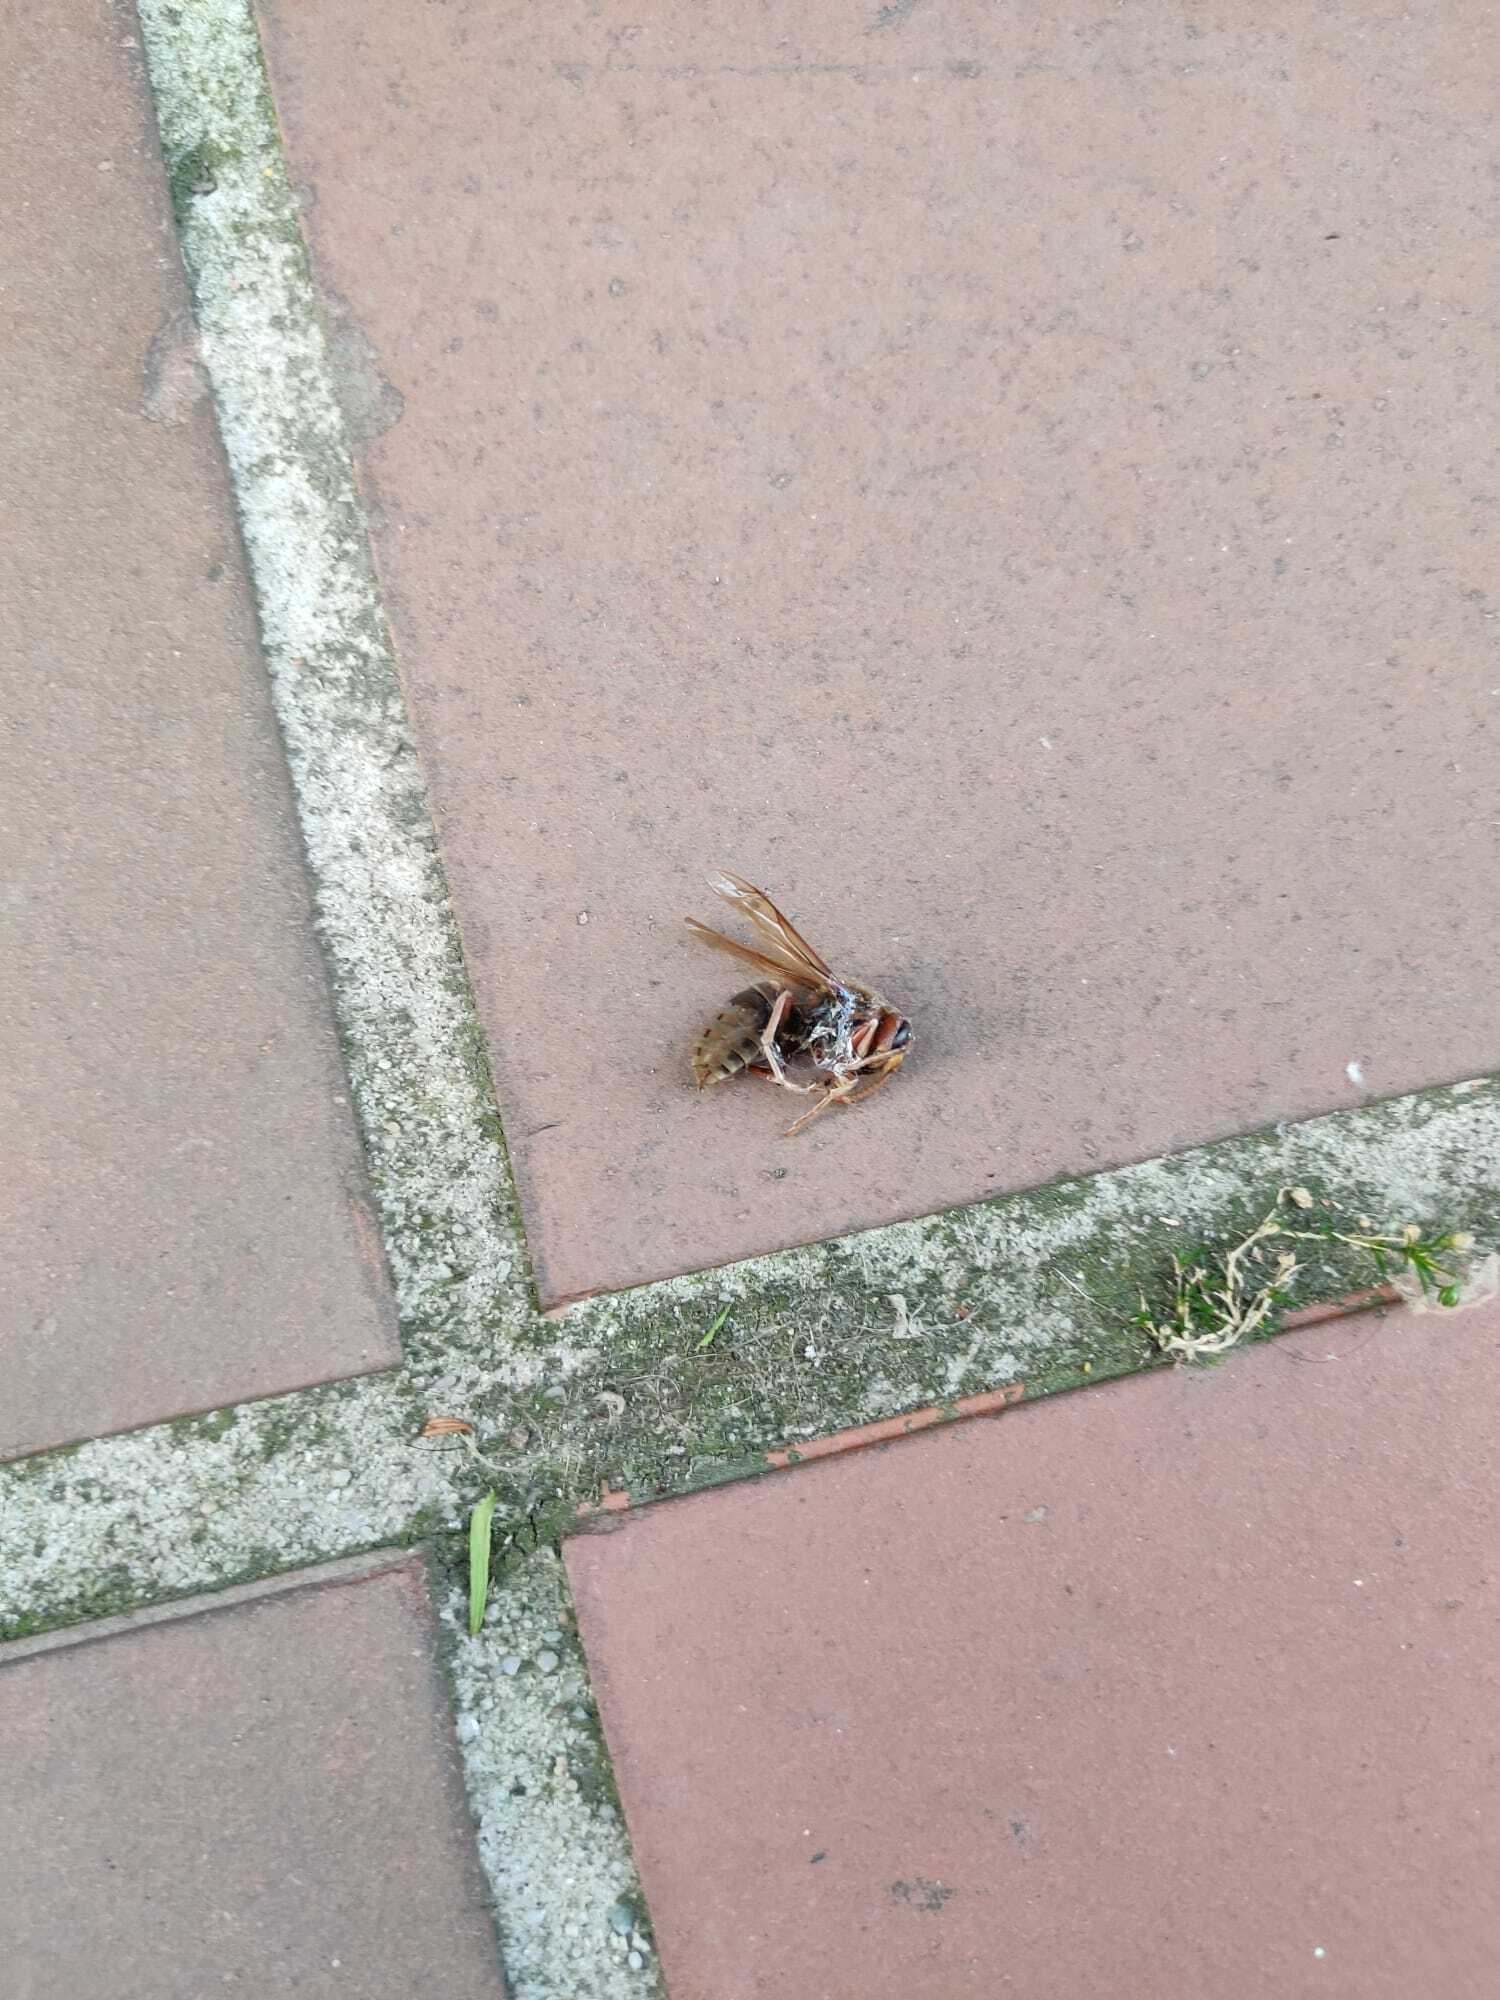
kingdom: Animalia
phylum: Arthropoda
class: Insecta
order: Hymenoptera
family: Vespidae
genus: Vespa
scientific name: Vespa crabro
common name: Hornet
